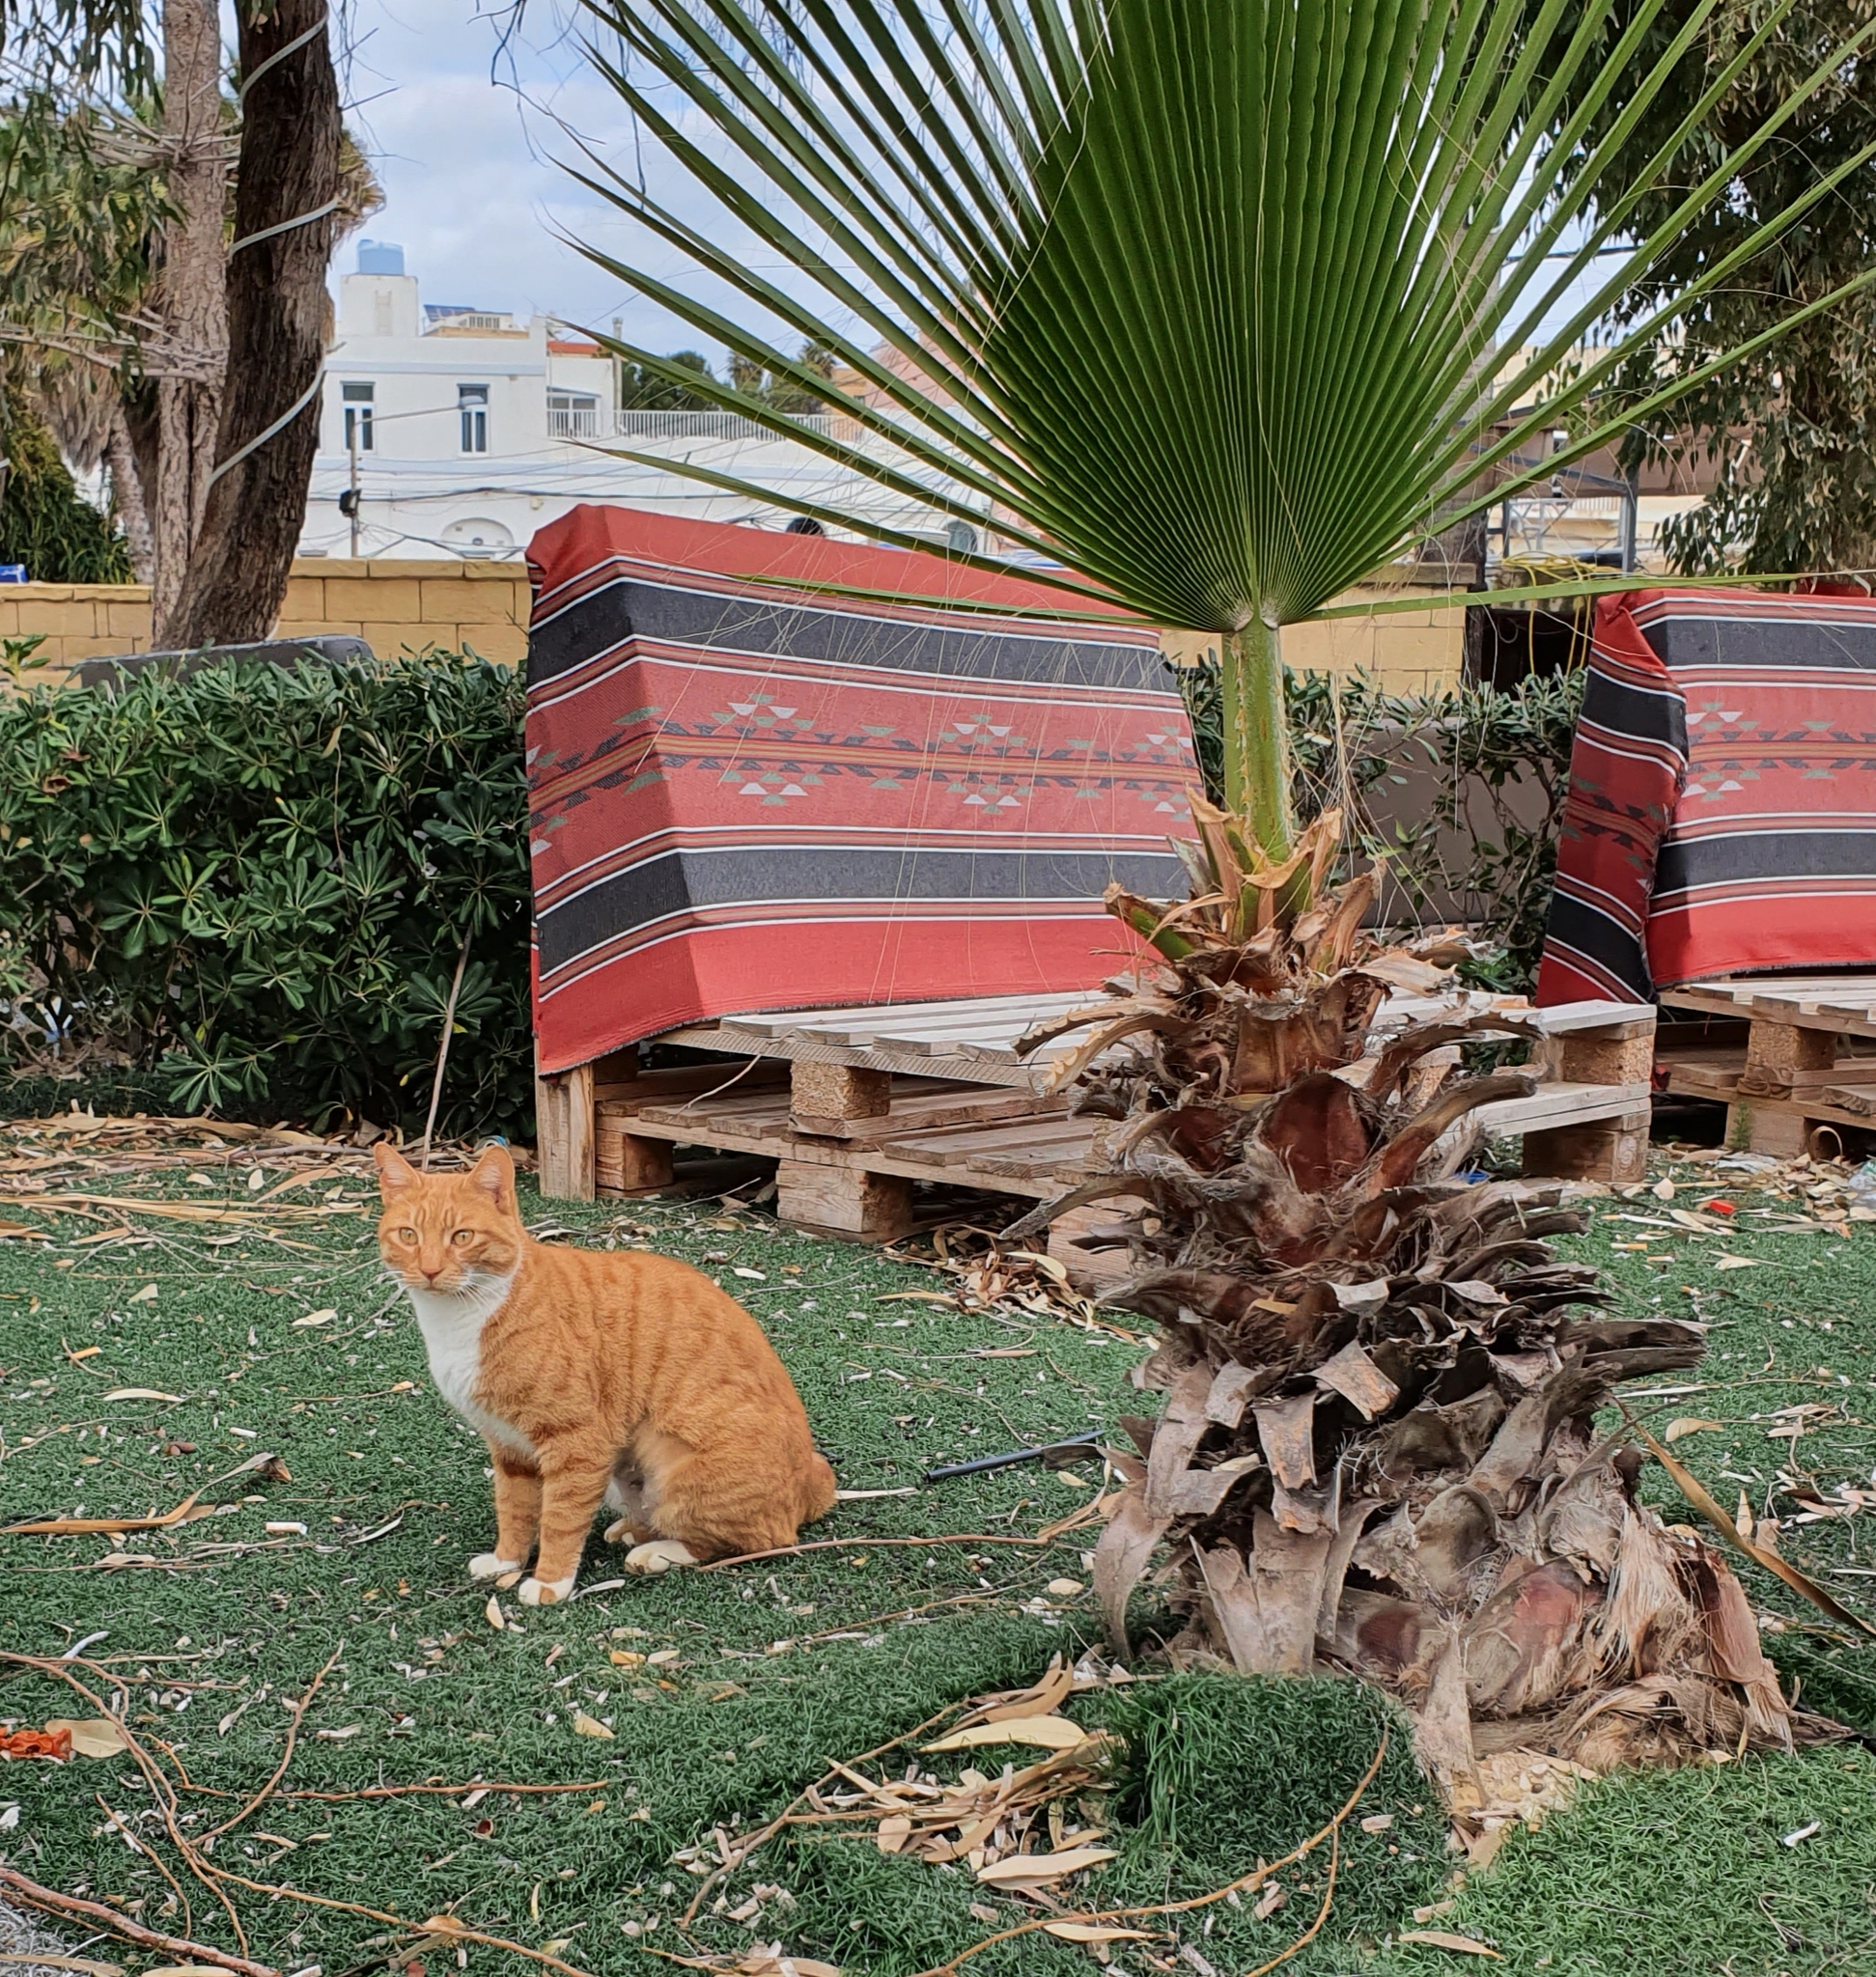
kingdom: Animalia
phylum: Chordata
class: Mammalia
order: Carnivora
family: Felidae
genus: Felis
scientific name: Felis catus
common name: Domestic cat
